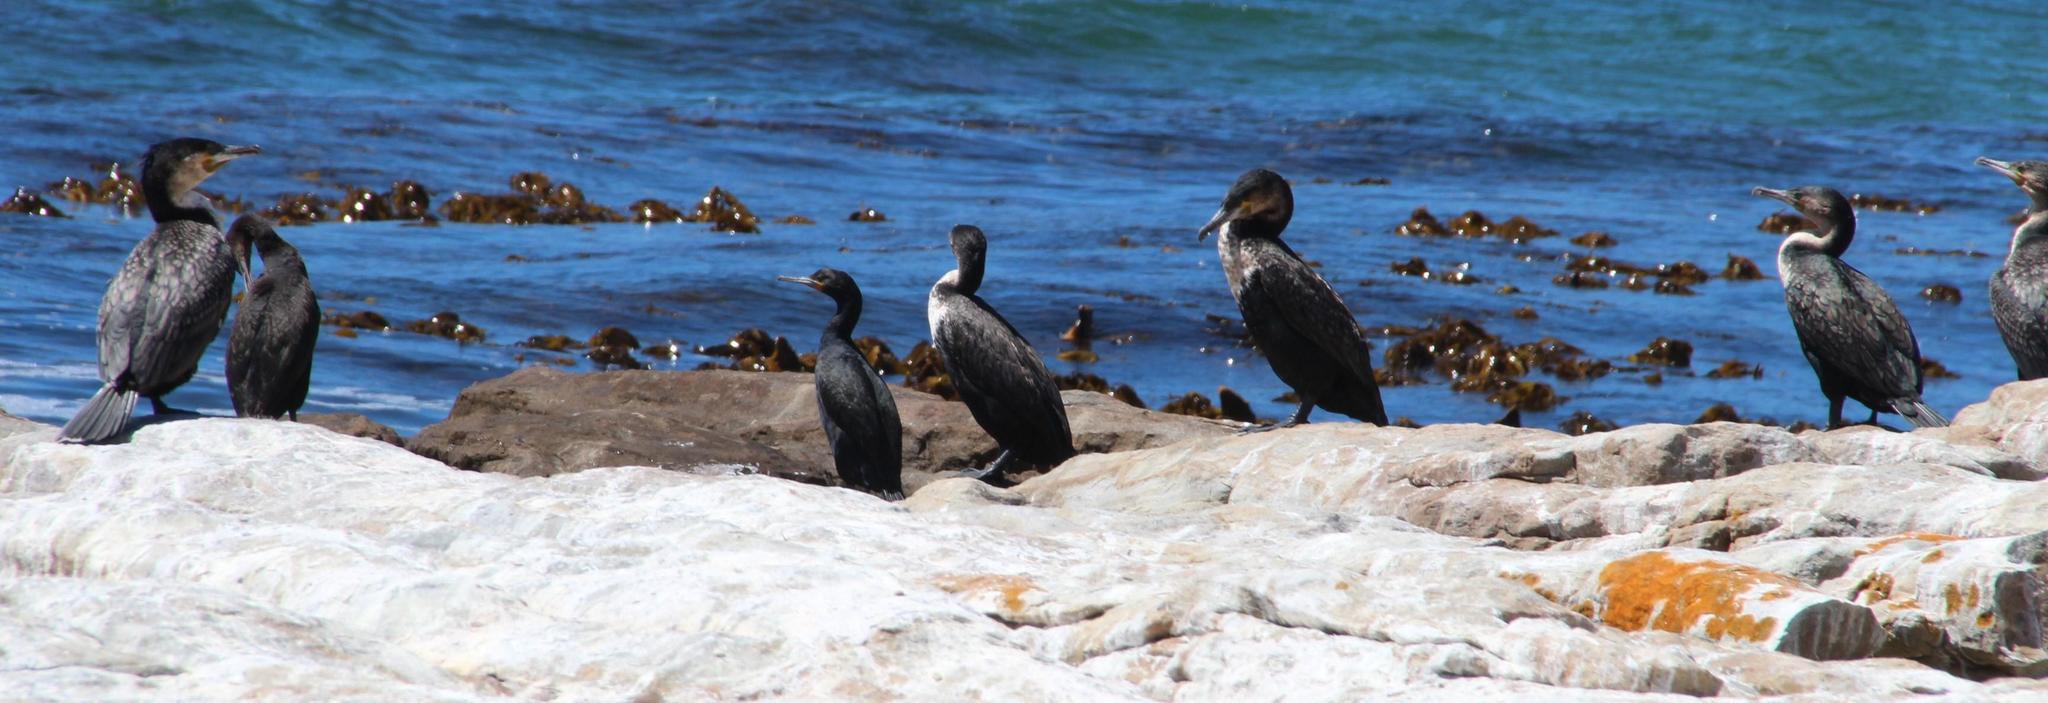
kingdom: Animalia
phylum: Chordata
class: Aves
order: Suliformes
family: Phalacrocoracidae
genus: Phalacrocorax
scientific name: Phalacrocorax carbo
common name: Great cormorant
